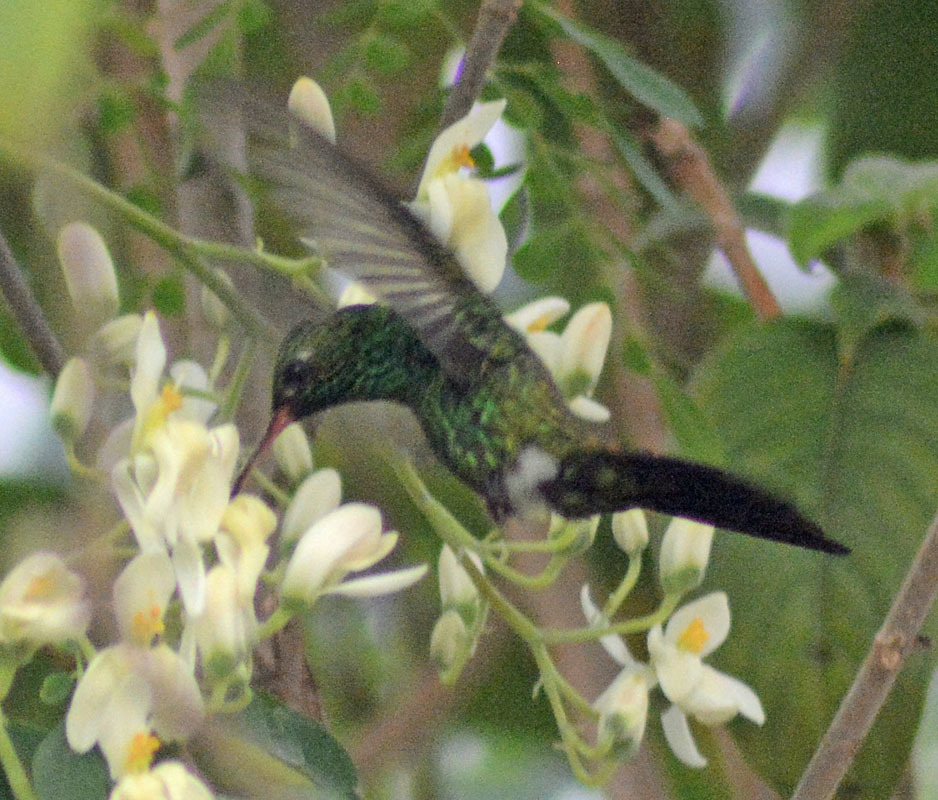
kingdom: Animalia
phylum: Chordata
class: Aves
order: Apodiformes
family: Trochilidae
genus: Cynanthus
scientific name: Cynanthus canivetii
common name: Canivet's emerald
